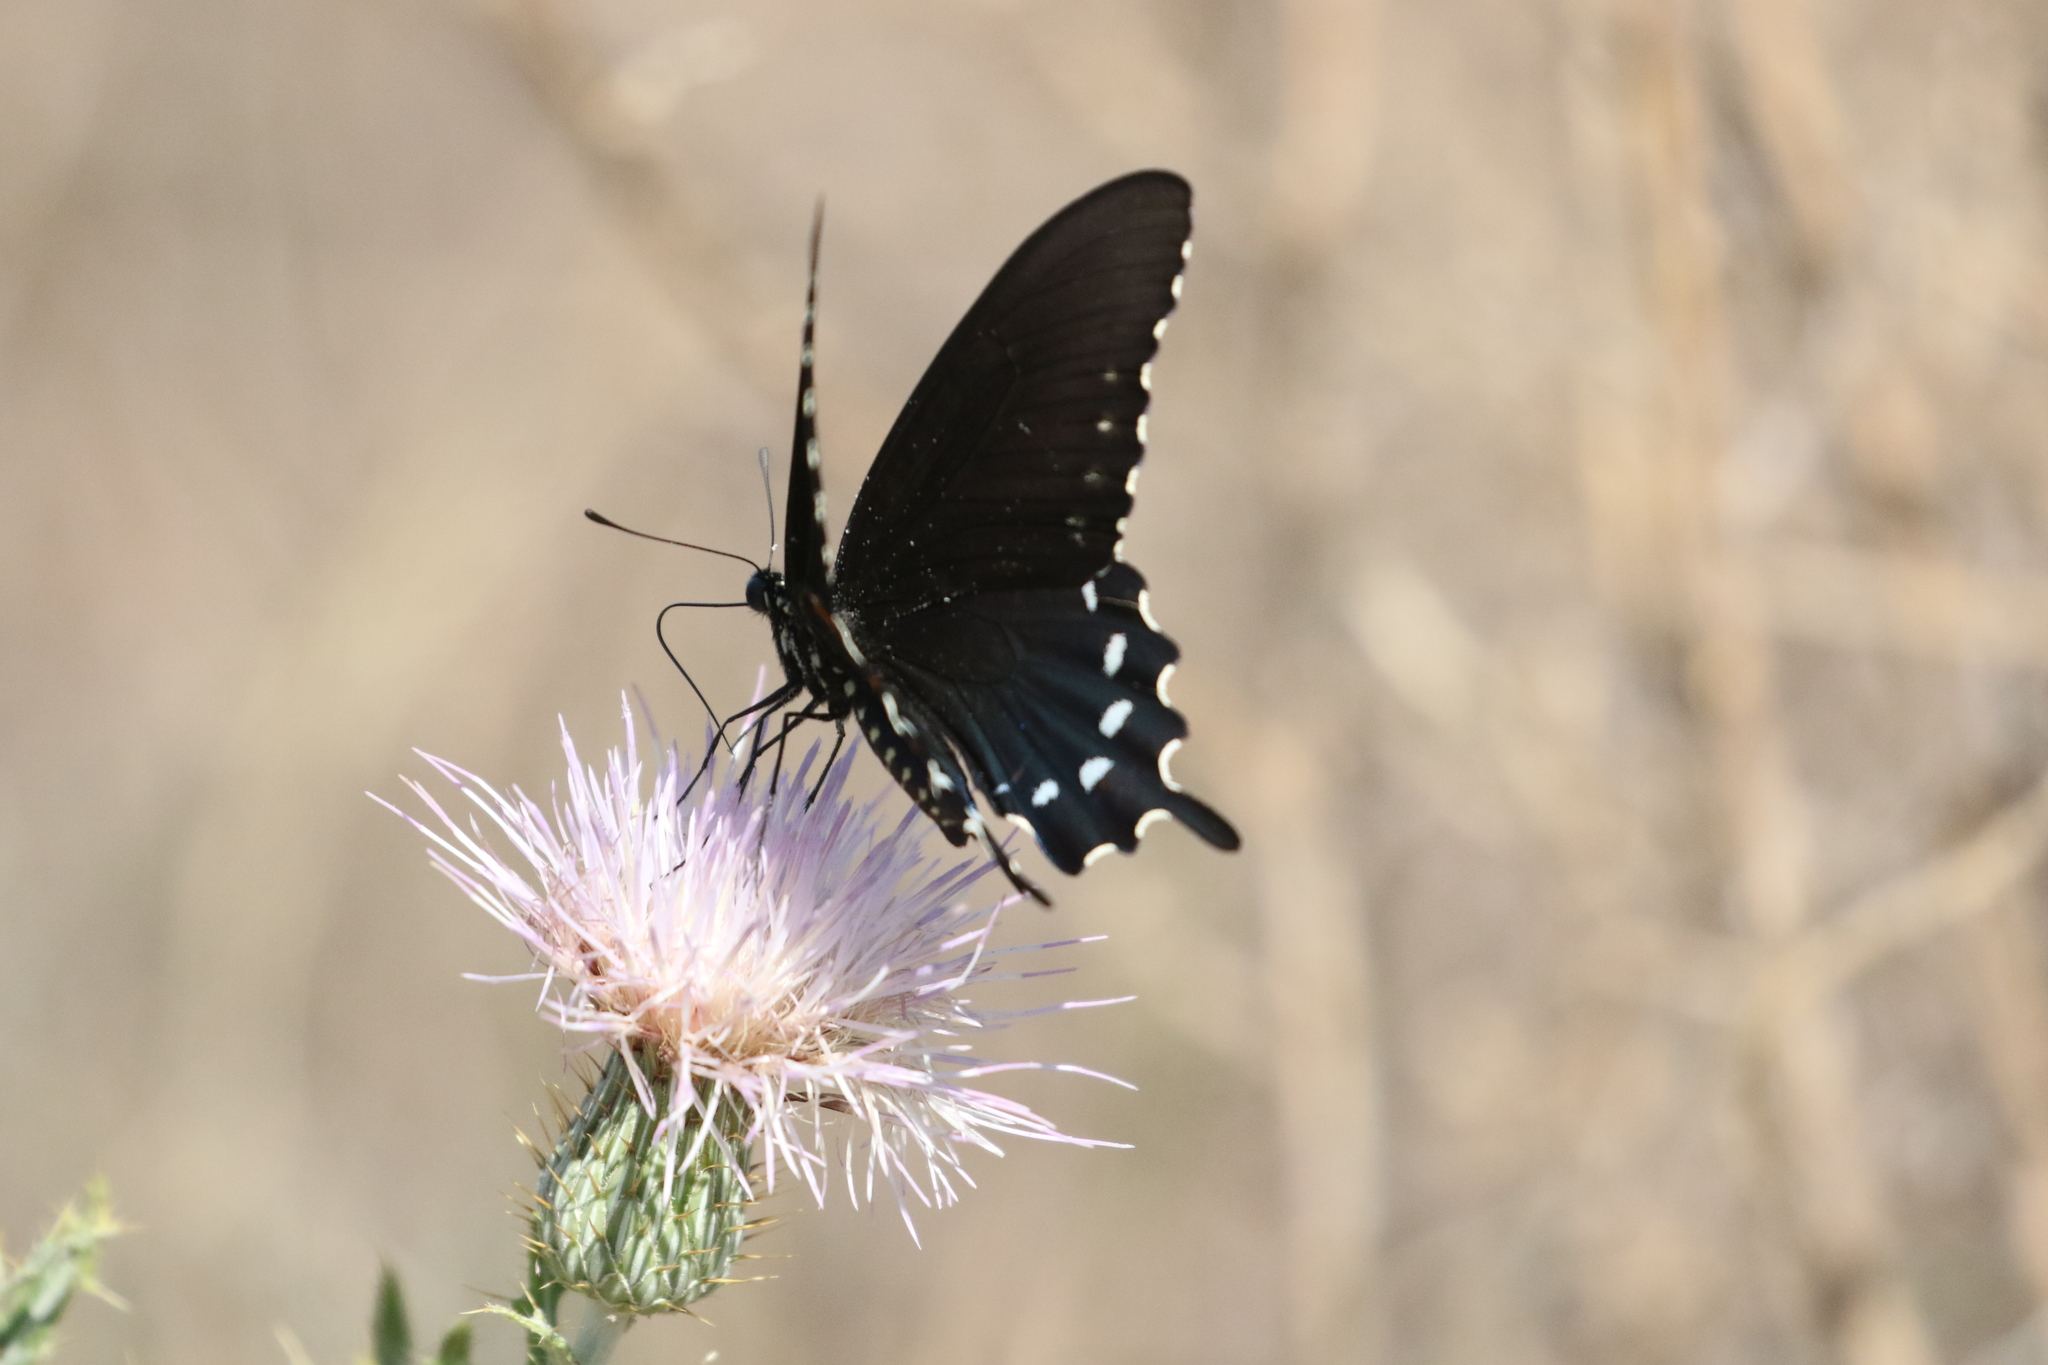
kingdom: Animalia
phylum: Arthropoda
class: Insecta
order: Lepidoptera
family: Papilionidae
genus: Battus
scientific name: Battus philenor
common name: Pipevine swallowtail
